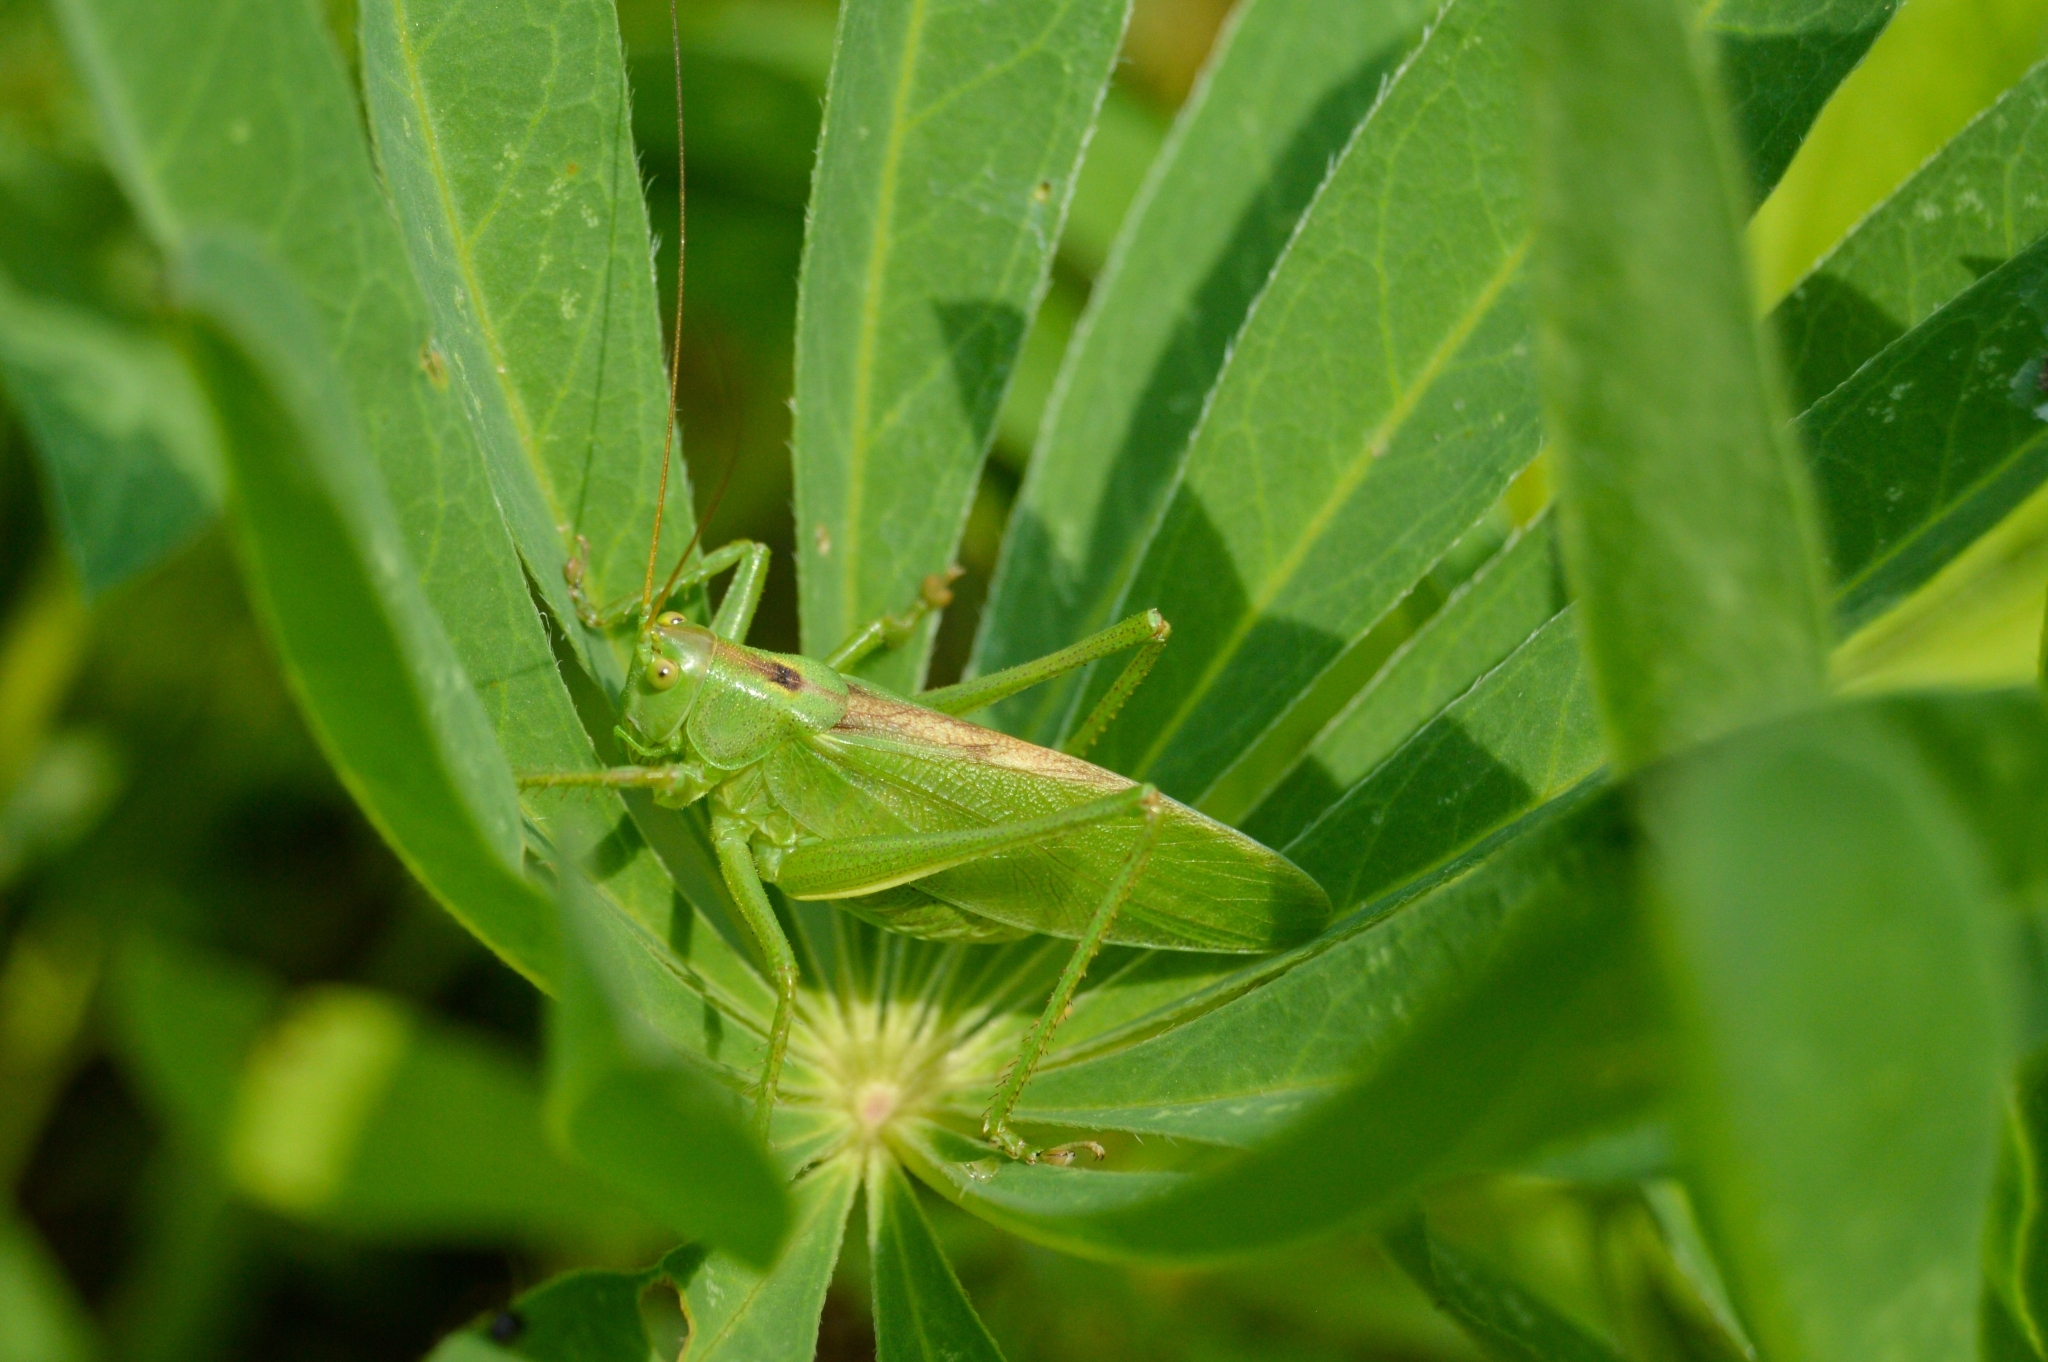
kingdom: Animalia
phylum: Arthropoda
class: Insecta
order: Orthoptera
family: Tettigoniidae
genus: Tettigonia
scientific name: Tettigonia cantans
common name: Upland green bush-cricket
